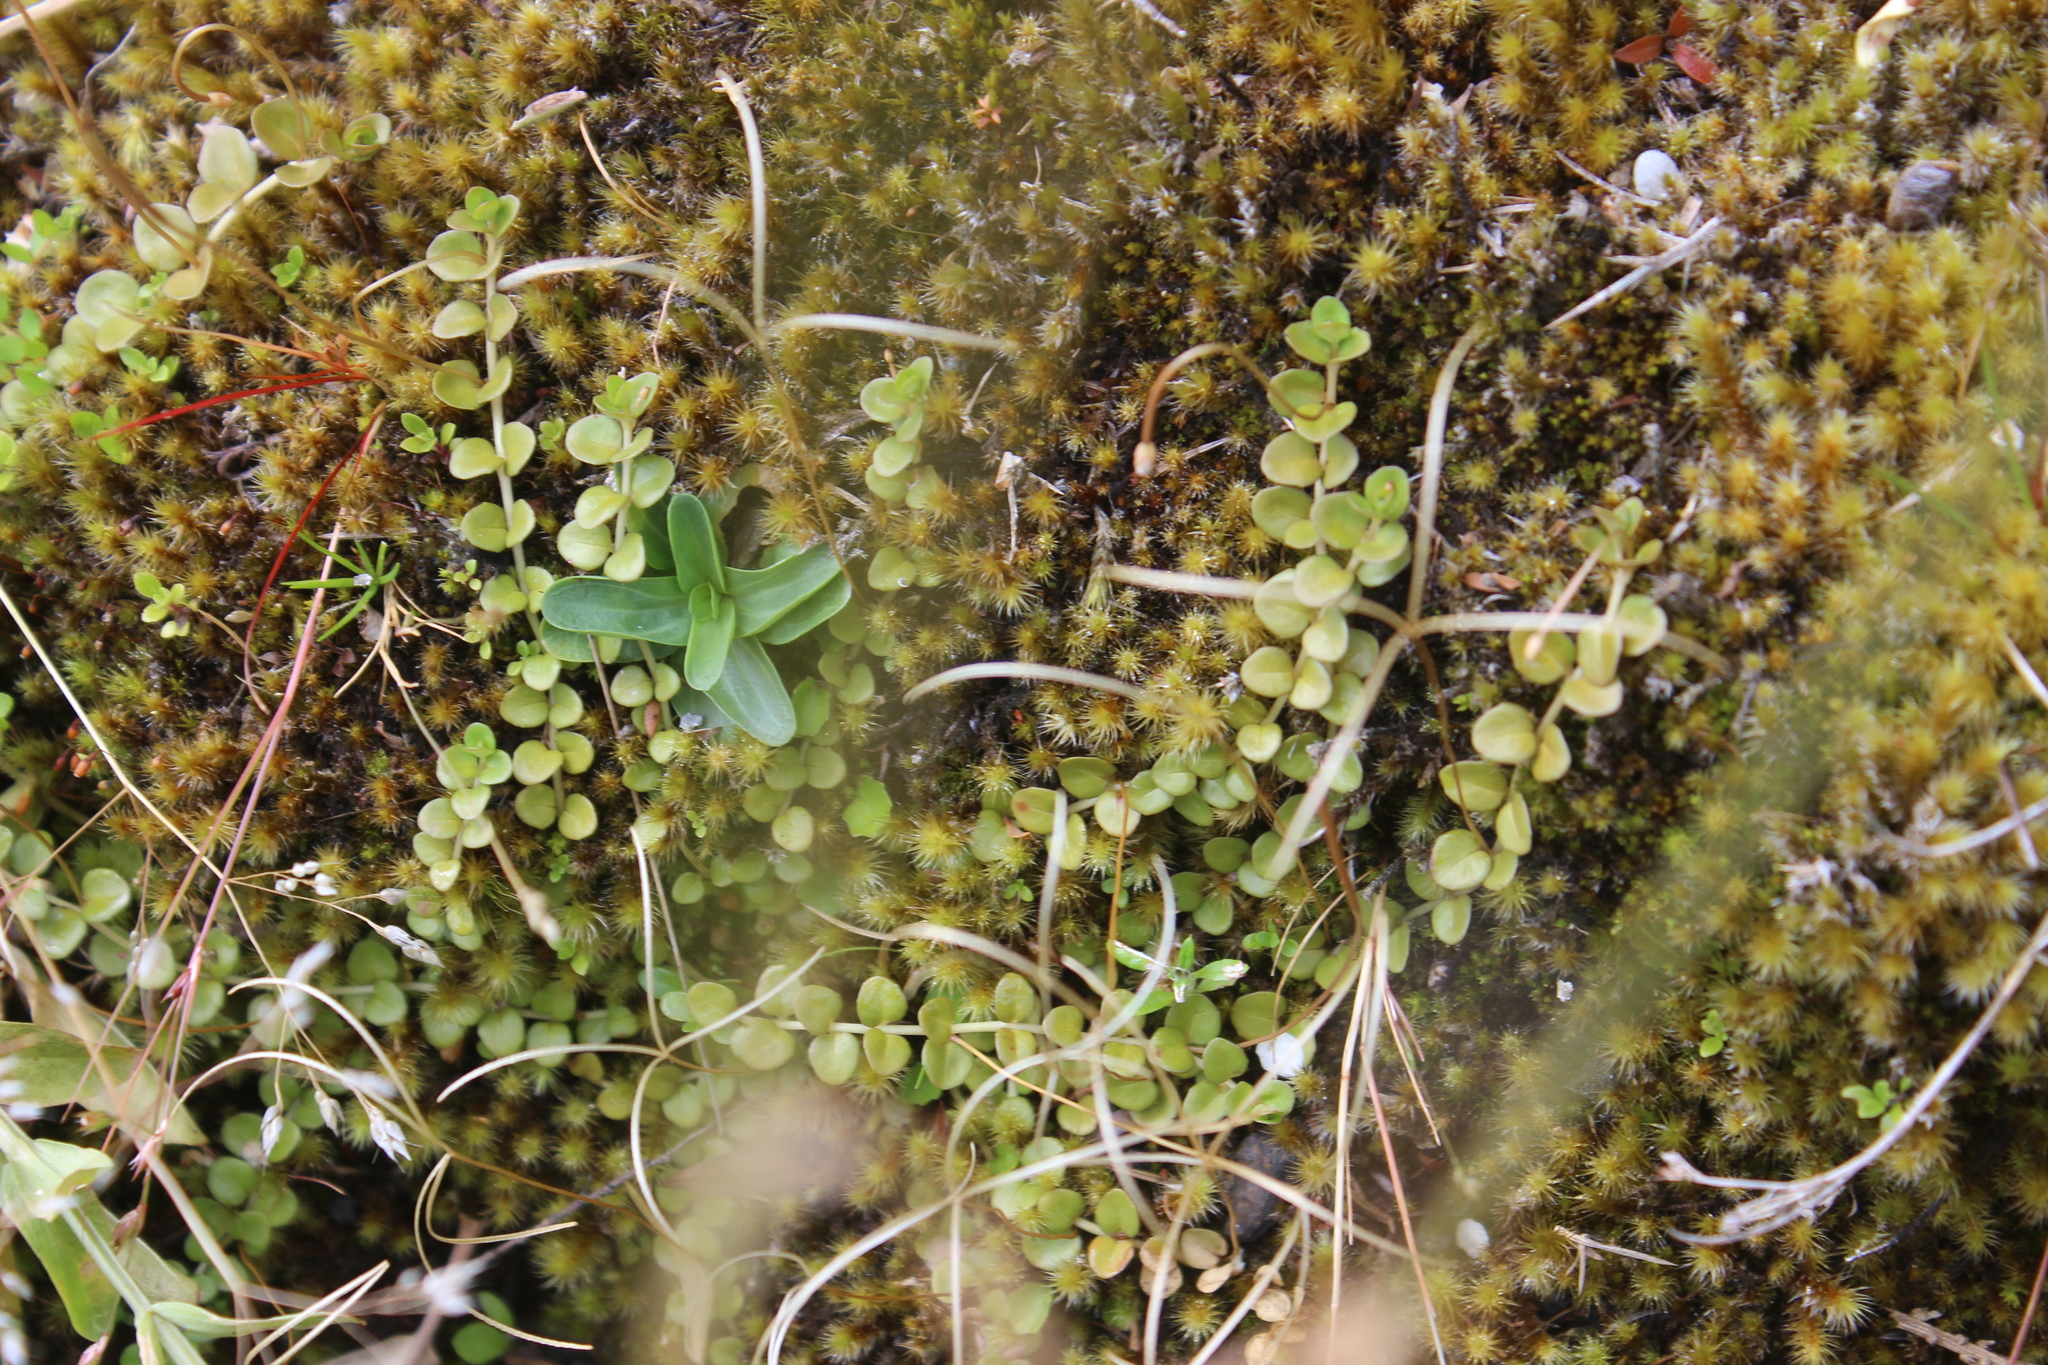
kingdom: Plantae
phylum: Tracheophyta
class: Magnoliopsida
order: Myrtales
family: Onagraceae
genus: Epilobium
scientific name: Epilobium brunnescens
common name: New zealand willowherb
